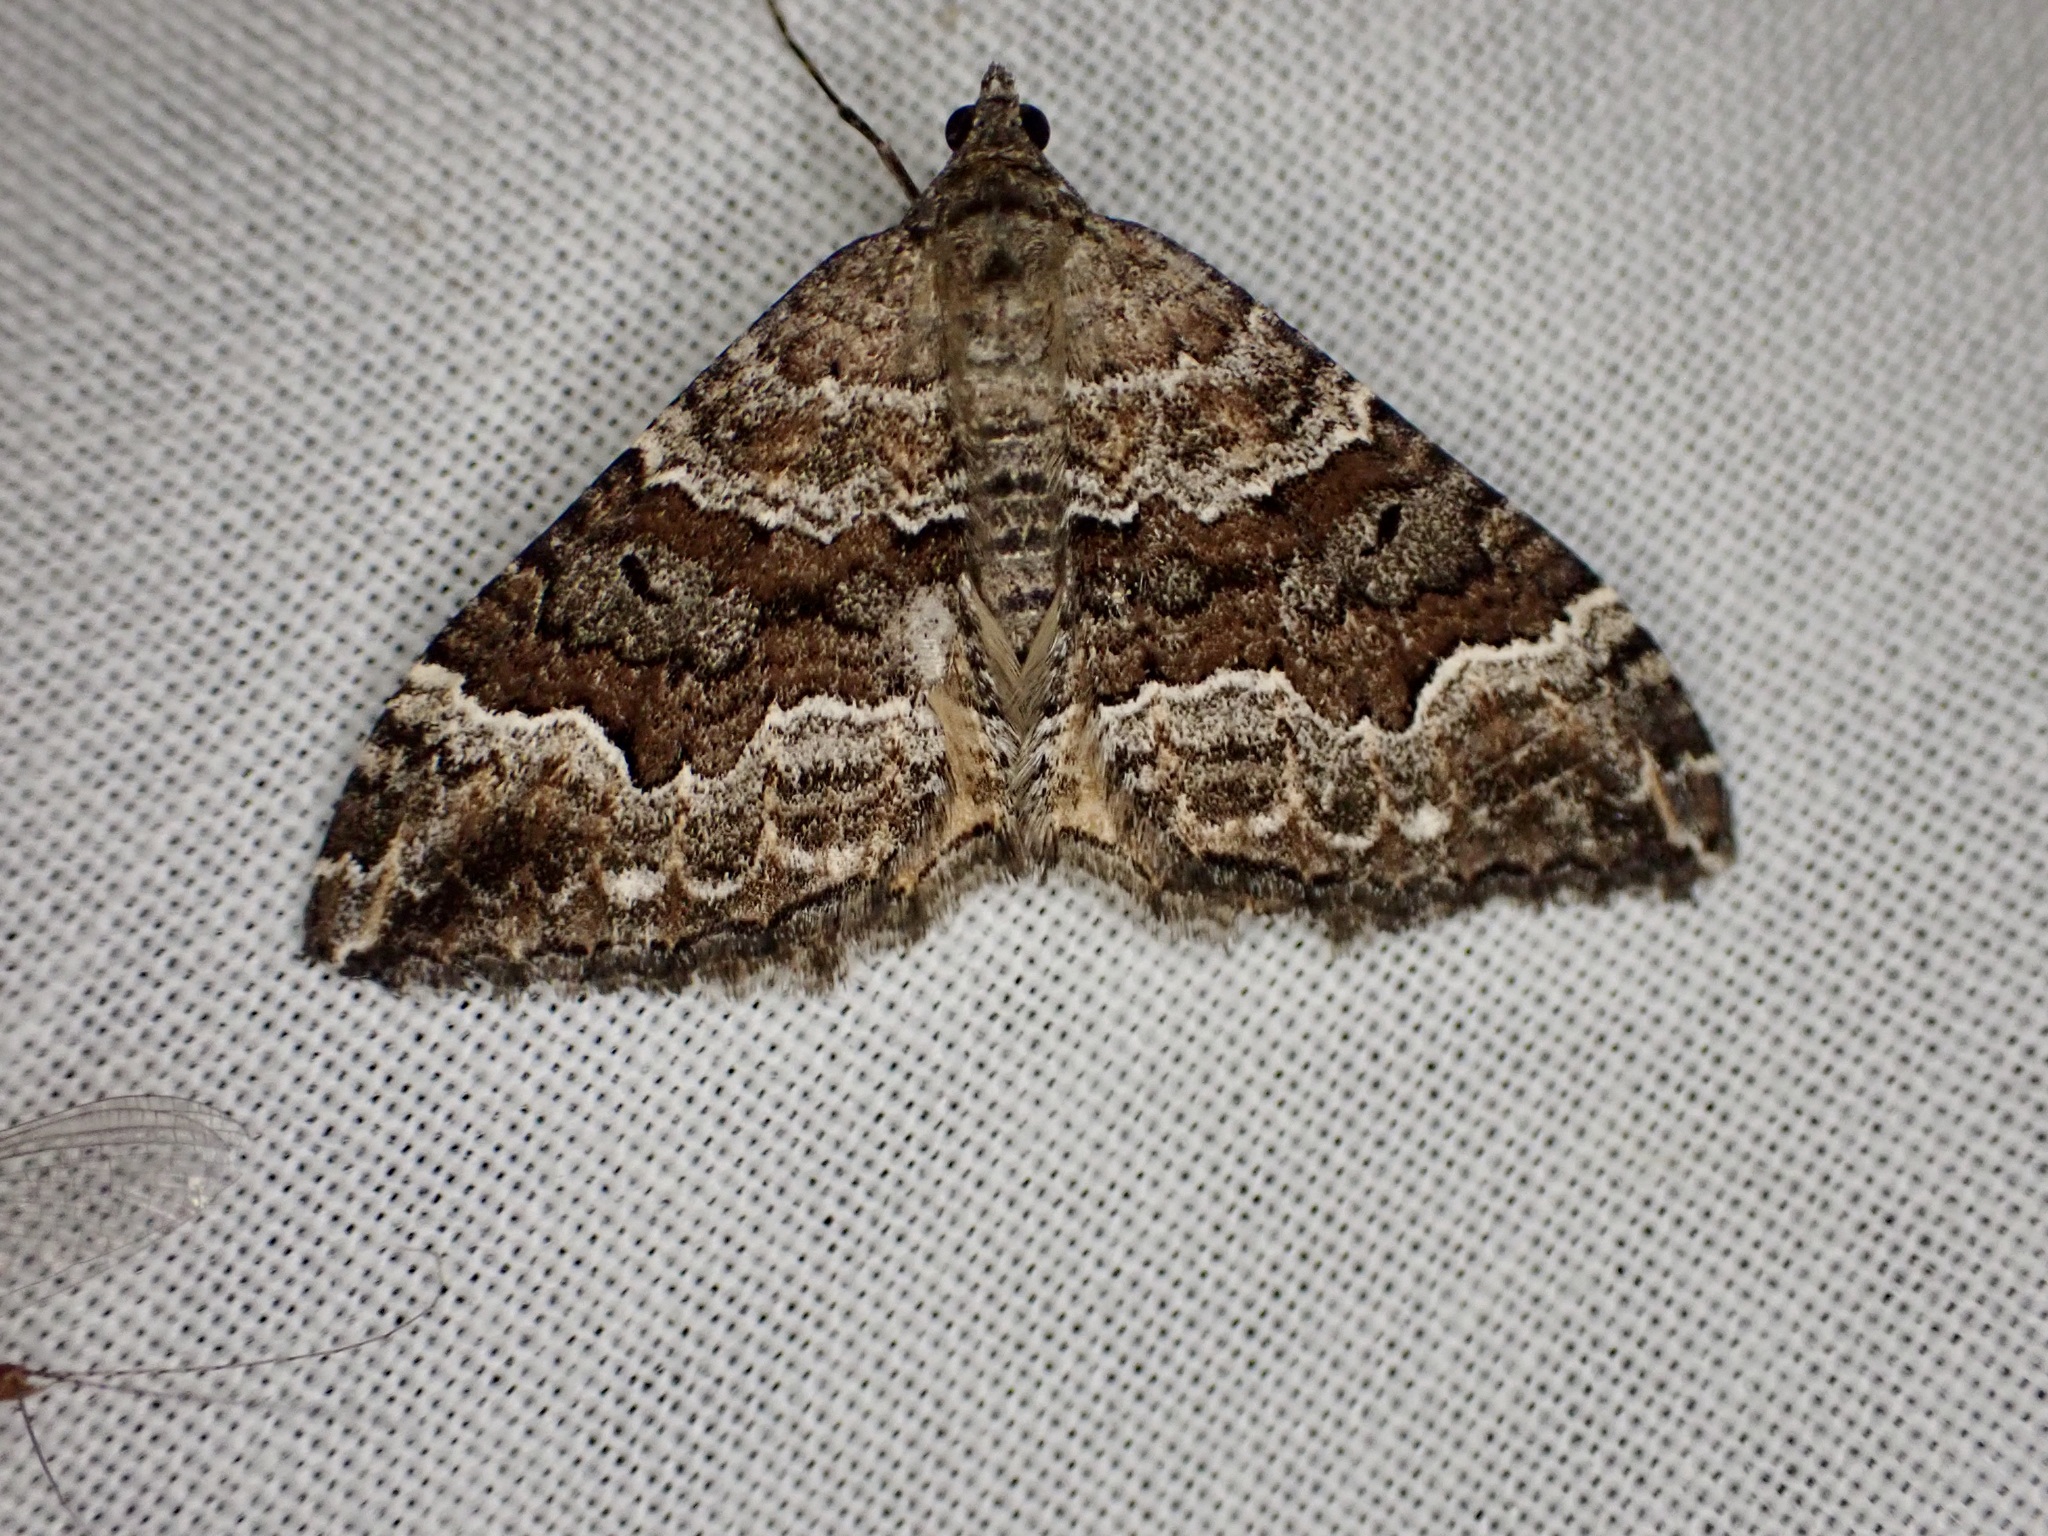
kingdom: Animalia
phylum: Arthropoda
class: Insecta
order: Lepidoptera
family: Geometridae
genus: Hydriomena
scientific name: Hydriomena deltoidata
